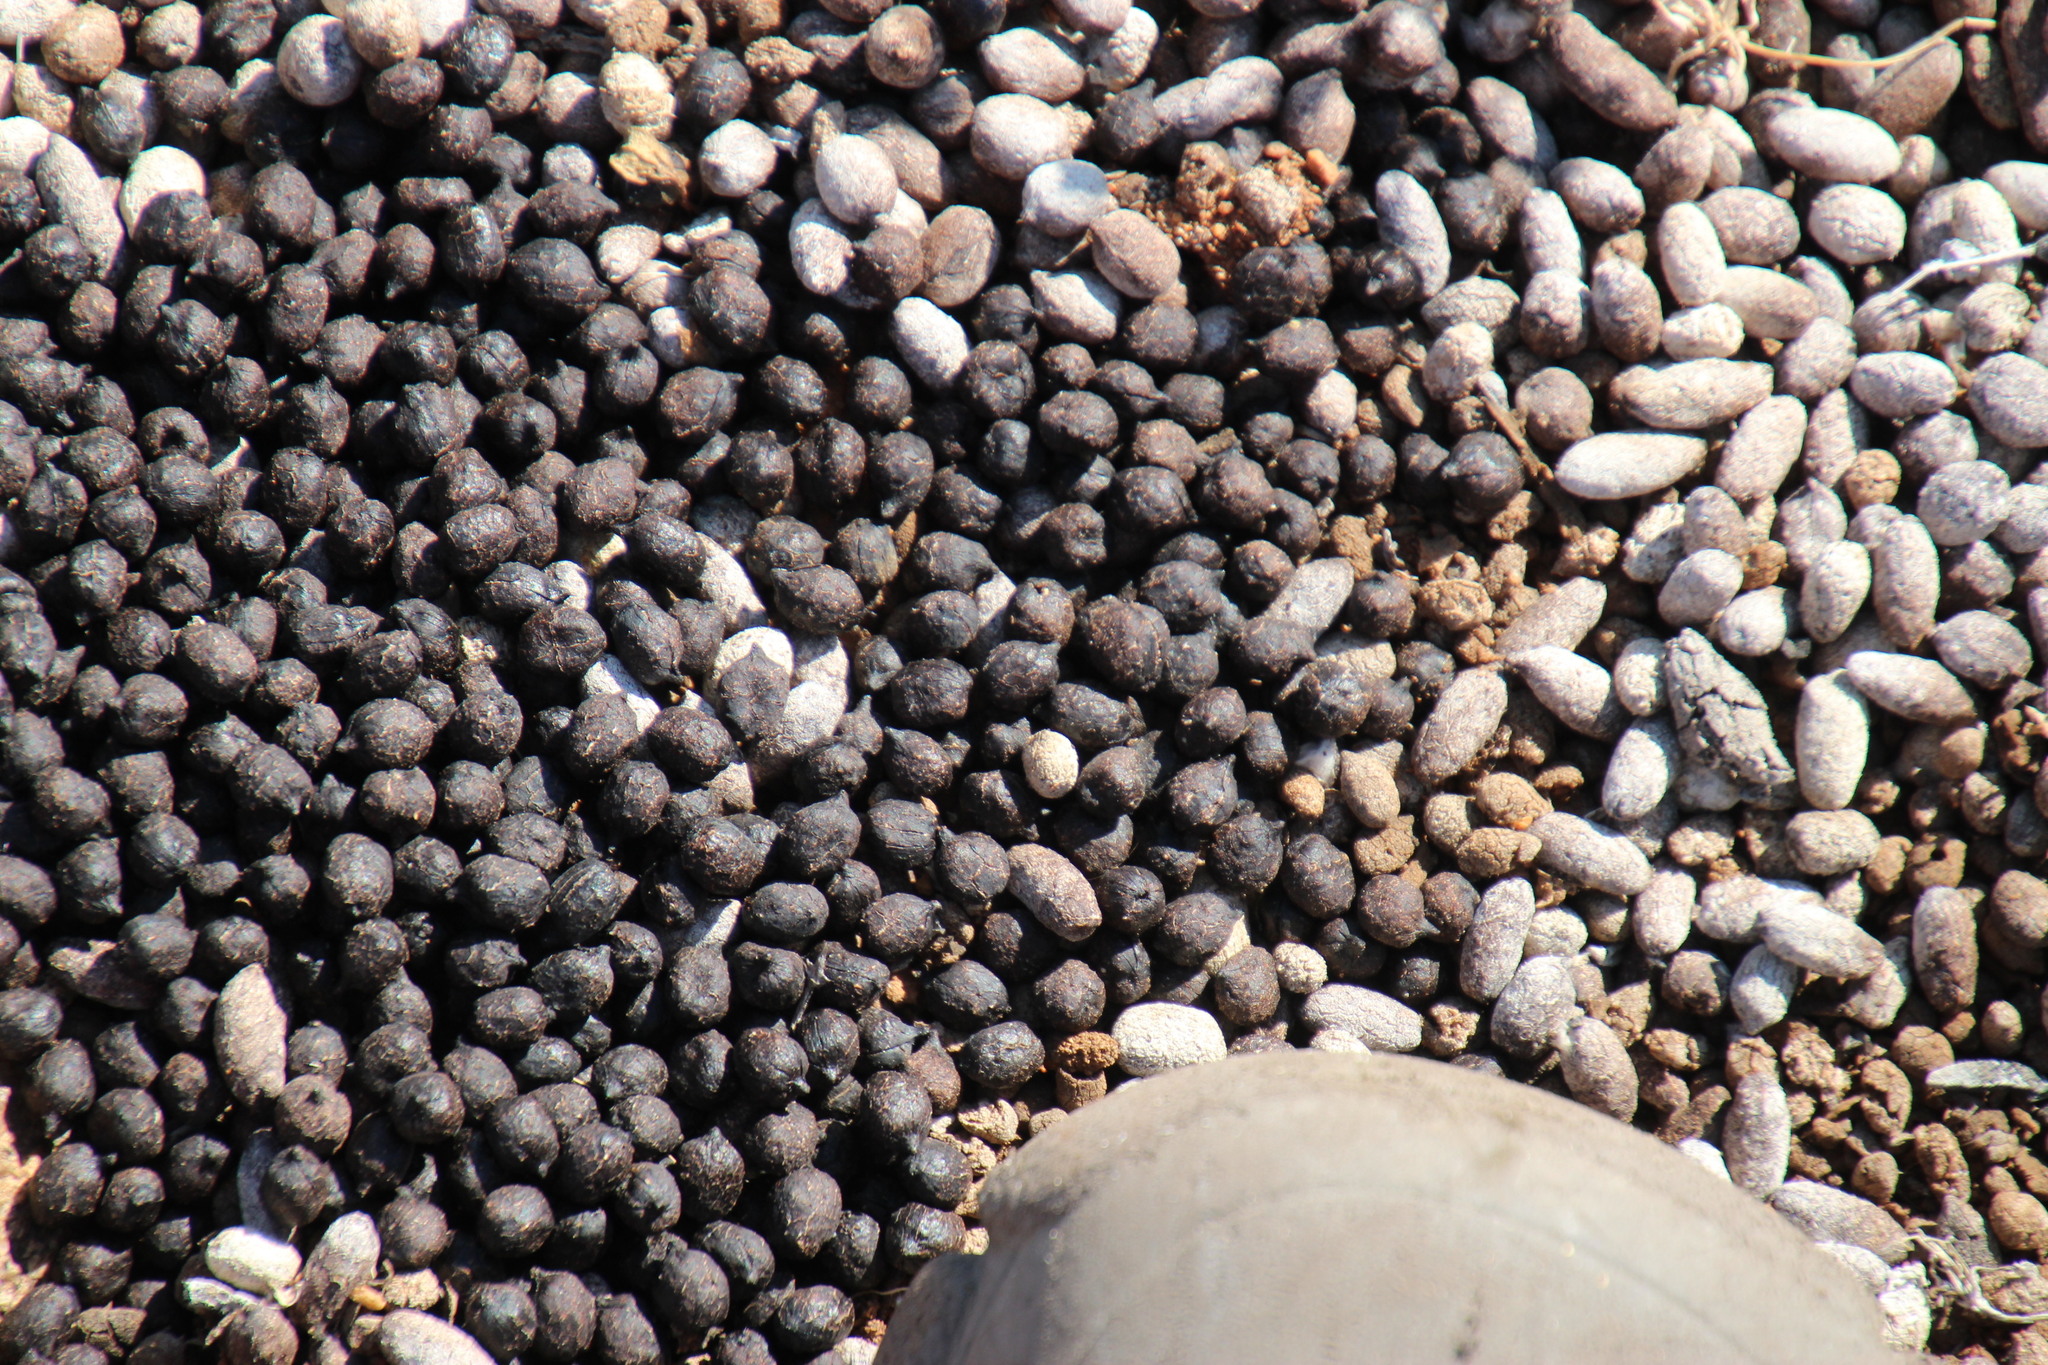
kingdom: Animalia
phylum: Chordata
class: Mammalia
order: Artiodactyla
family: Bovidae
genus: Oreotragus
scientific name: Oreotragus oreotragus
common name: Klipspringer
